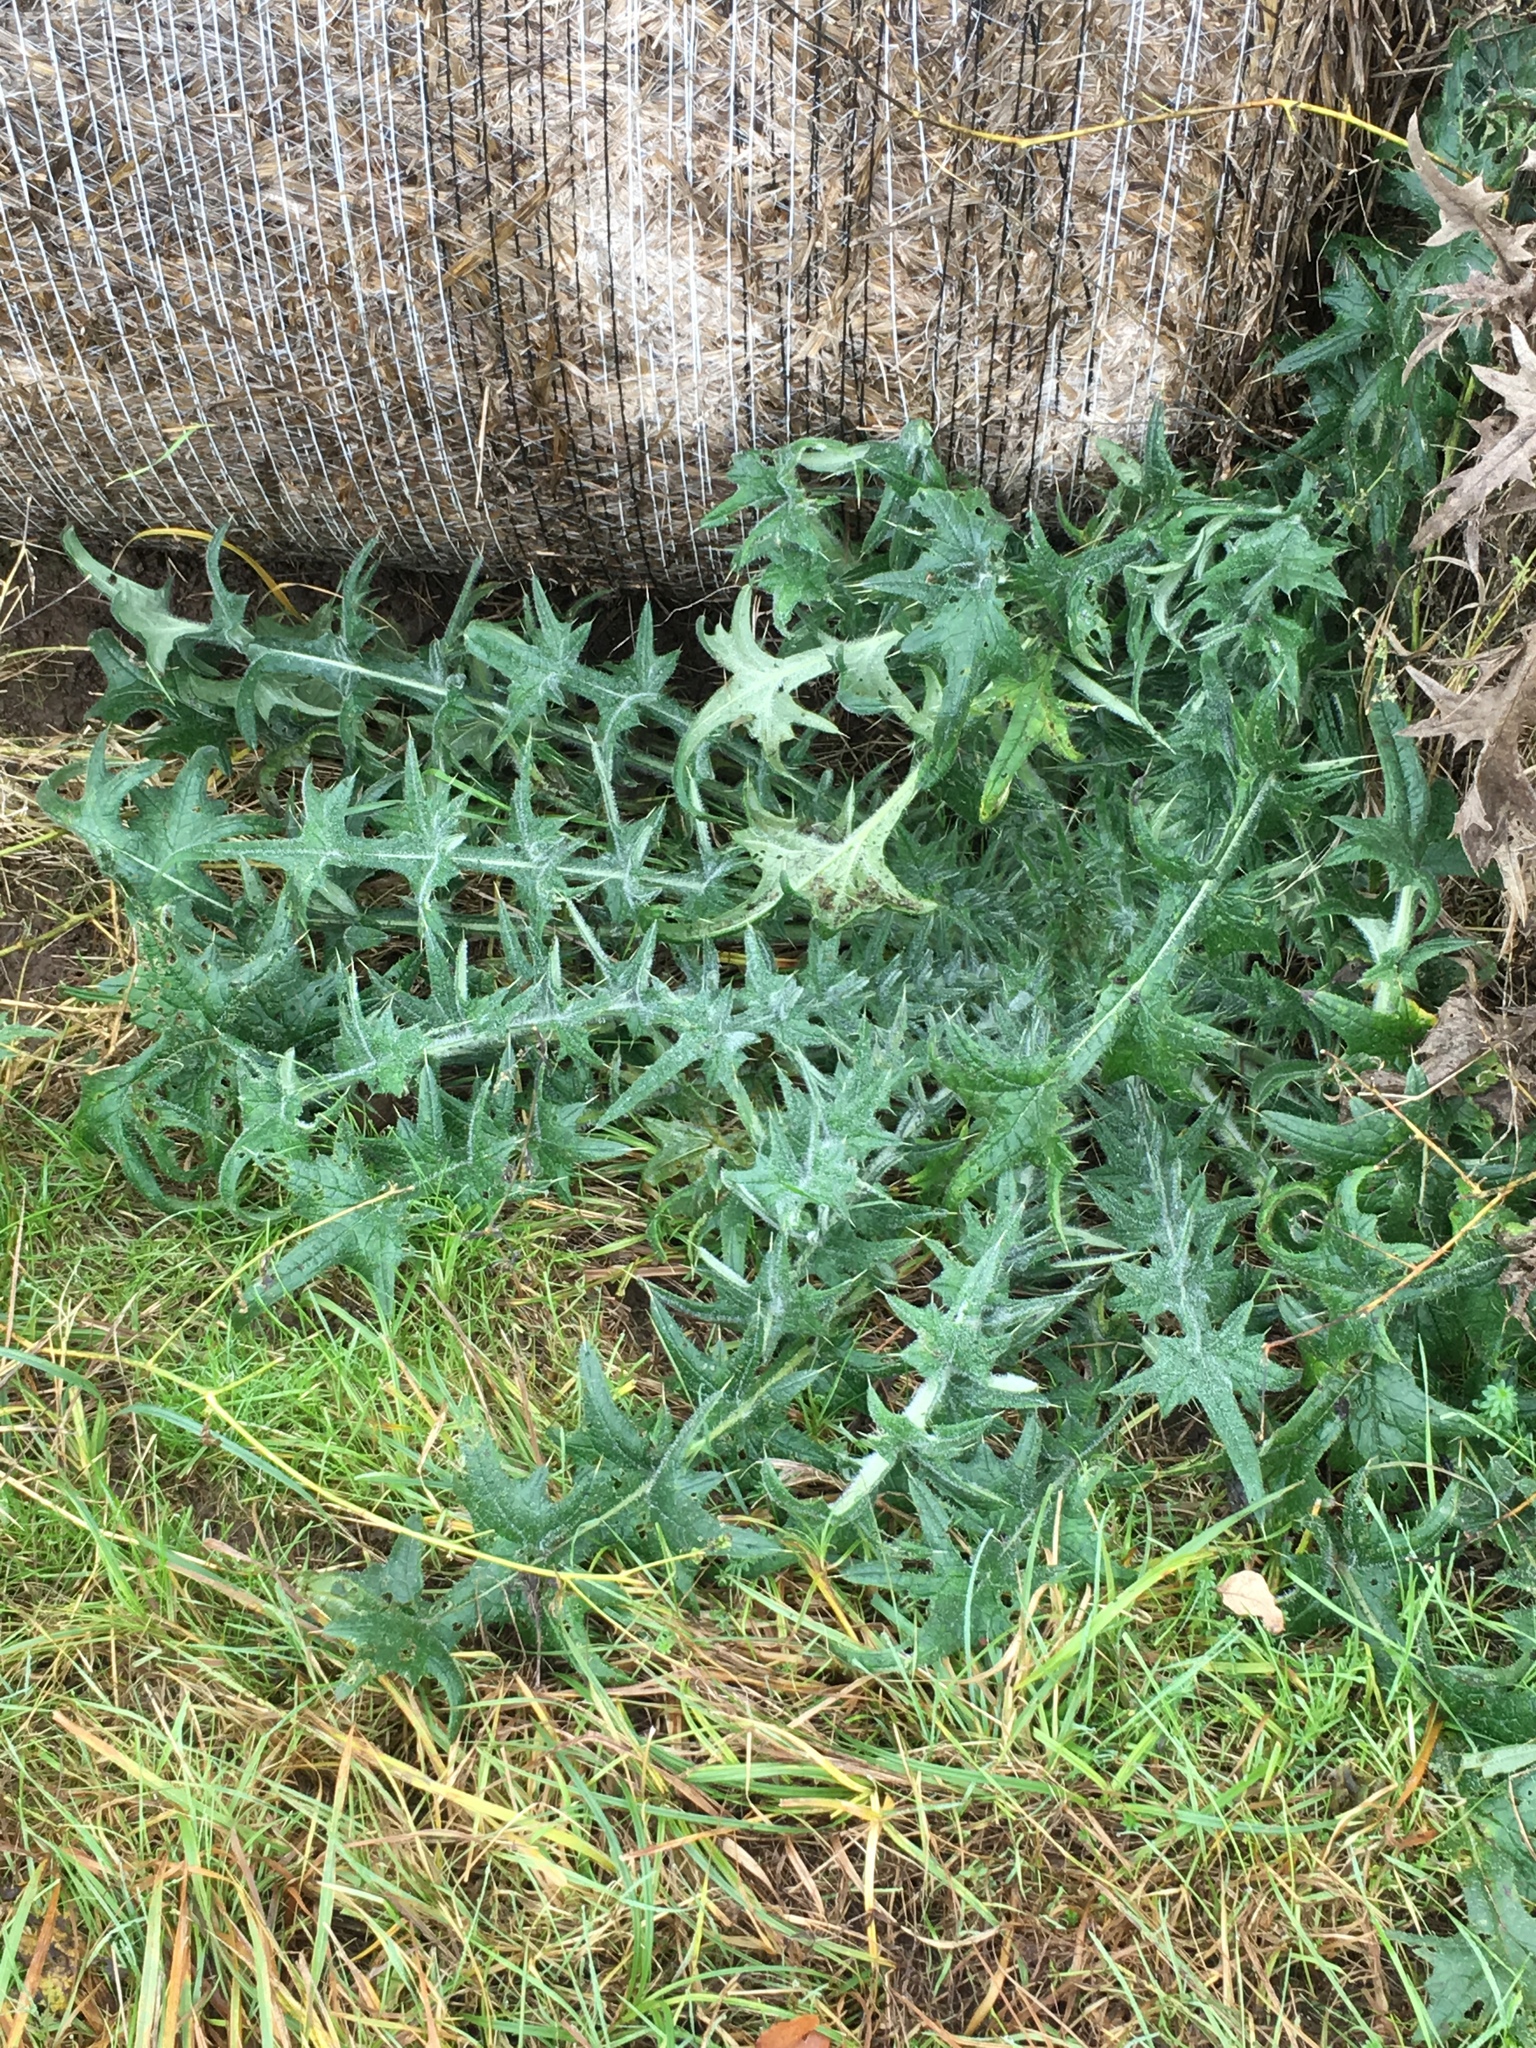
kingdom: Plantae
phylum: Tracheophyta
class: Magnoliopsida
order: Asterales
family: Asteraceae
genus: Cirsium
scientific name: Cirsium vulgare
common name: Bull thistle
